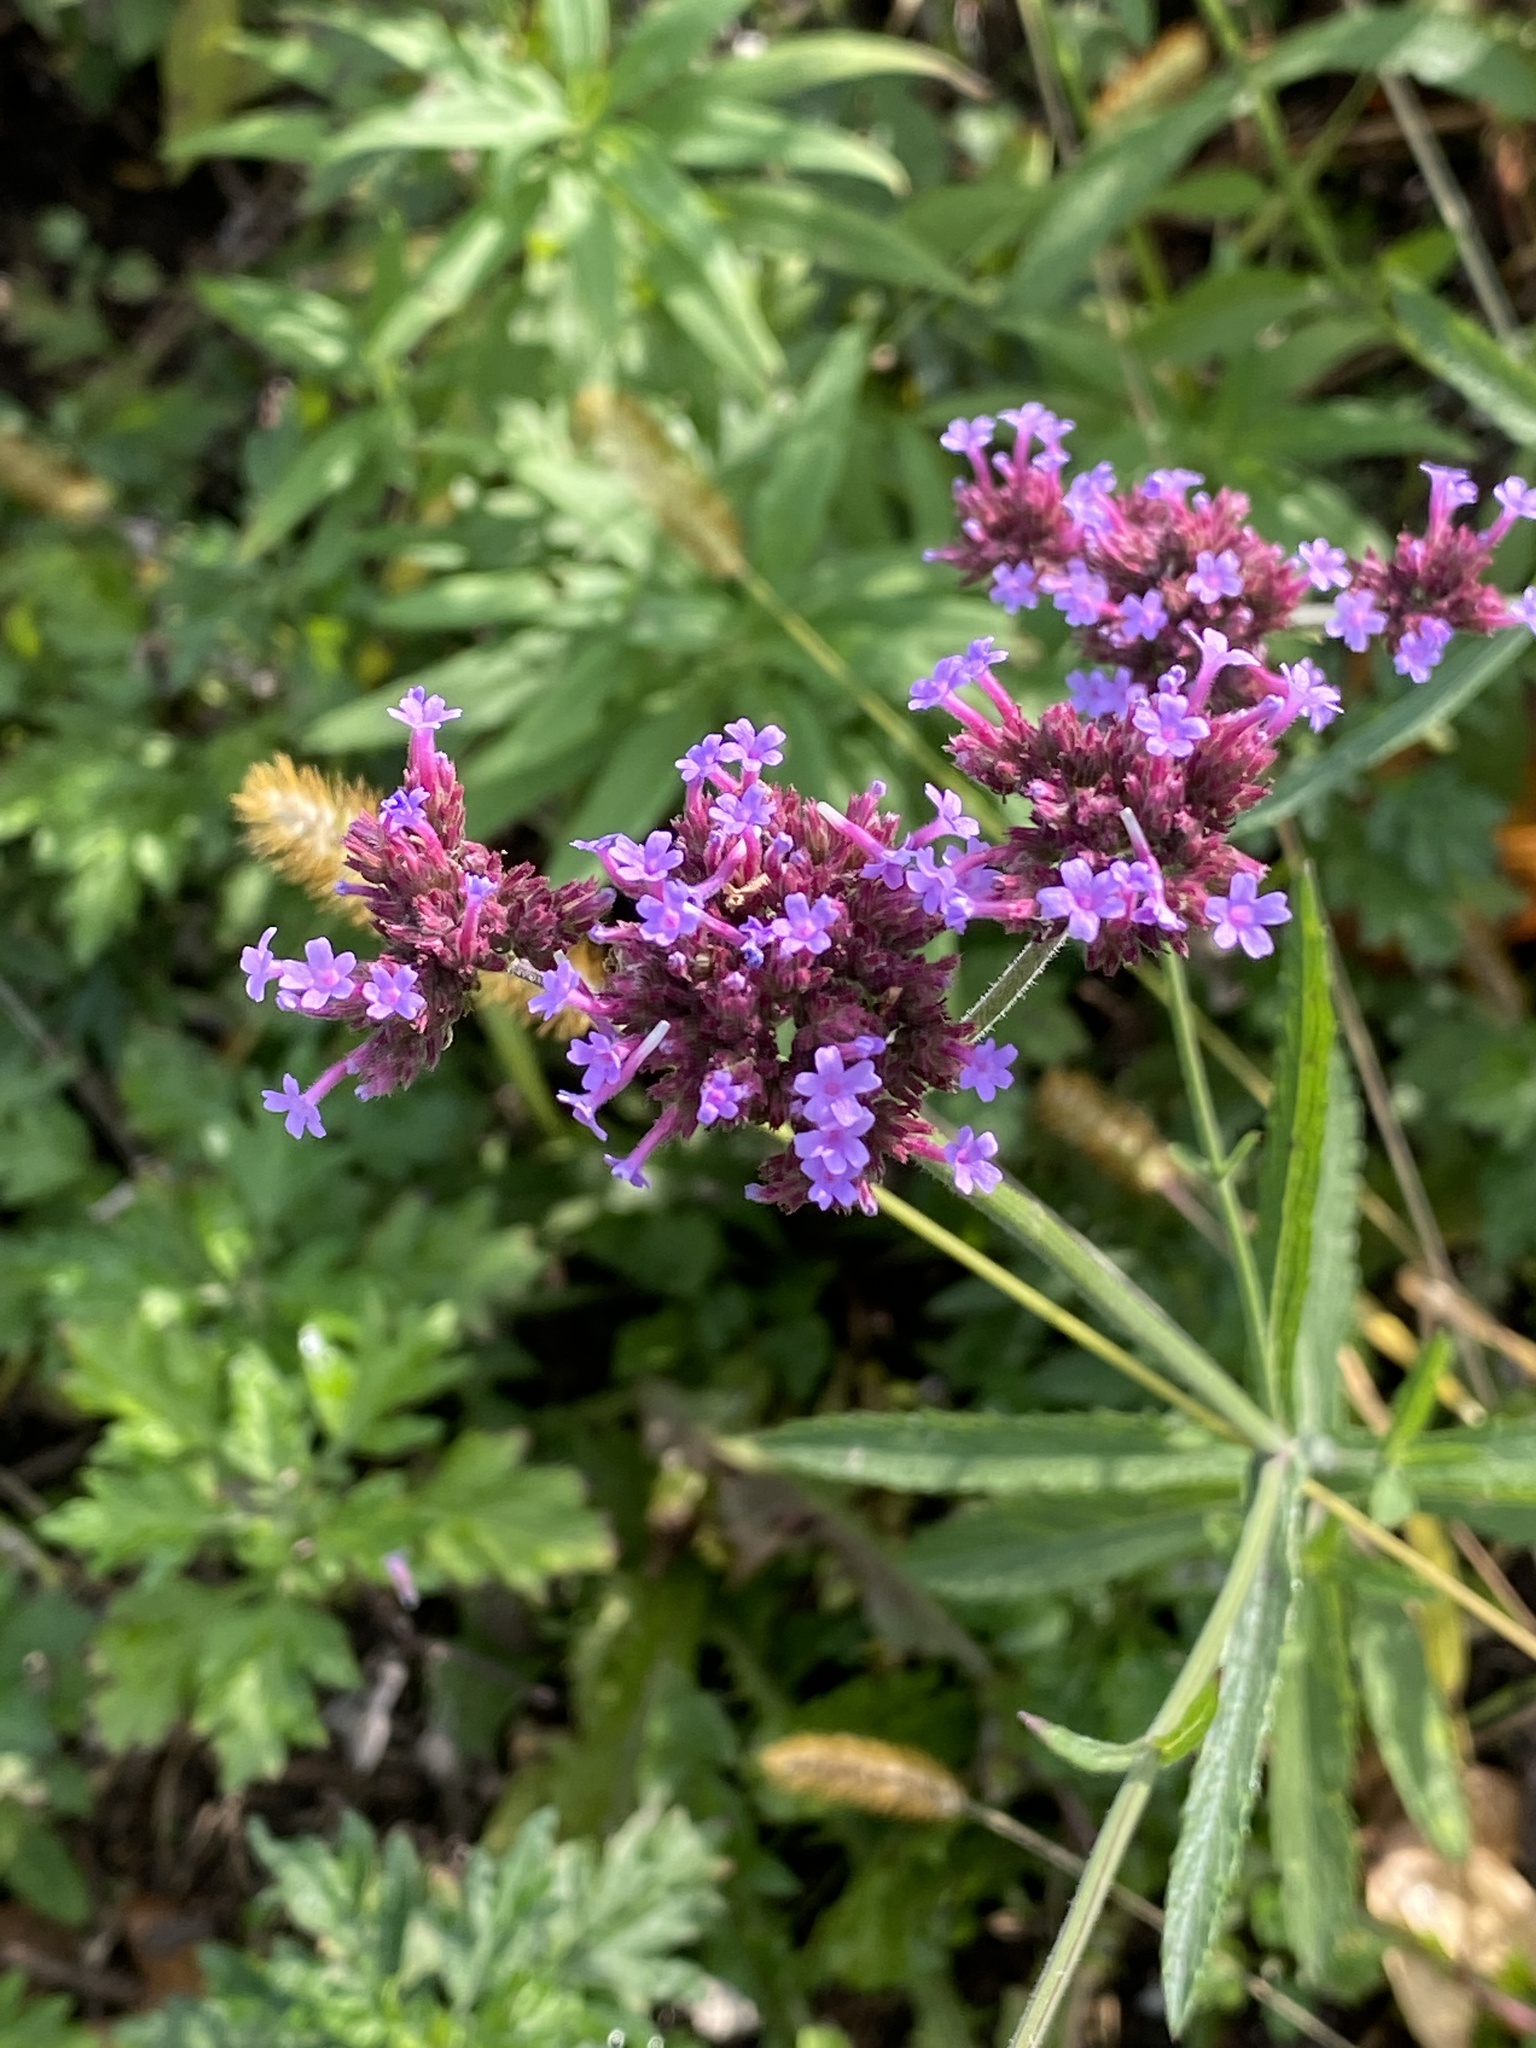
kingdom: Plantae
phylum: Tracheophyta
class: Magnoliopsida
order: Lamiales
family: Verbenaceae
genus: Verbena
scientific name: Verbena bonariensis
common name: Purpletop vervain
